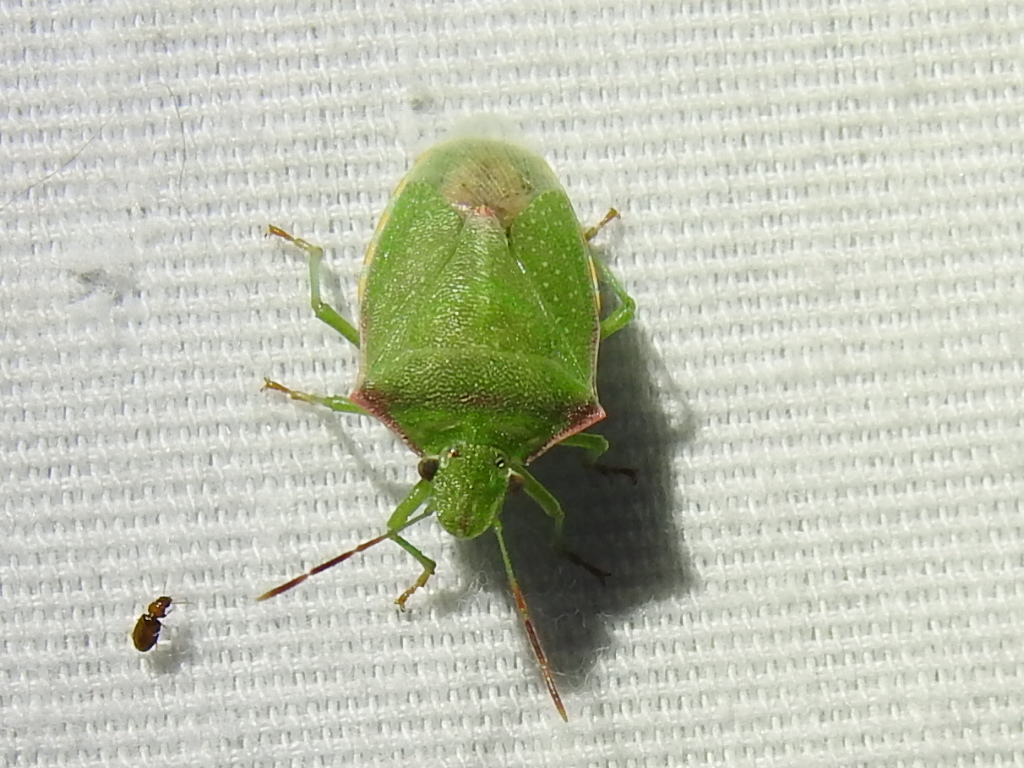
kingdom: Animalia
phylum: Arthropoda
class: Insecta
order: Hemiptera
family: Pentatomidae
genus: Thyanta
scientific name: Thyanta custator
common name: Stink bug
